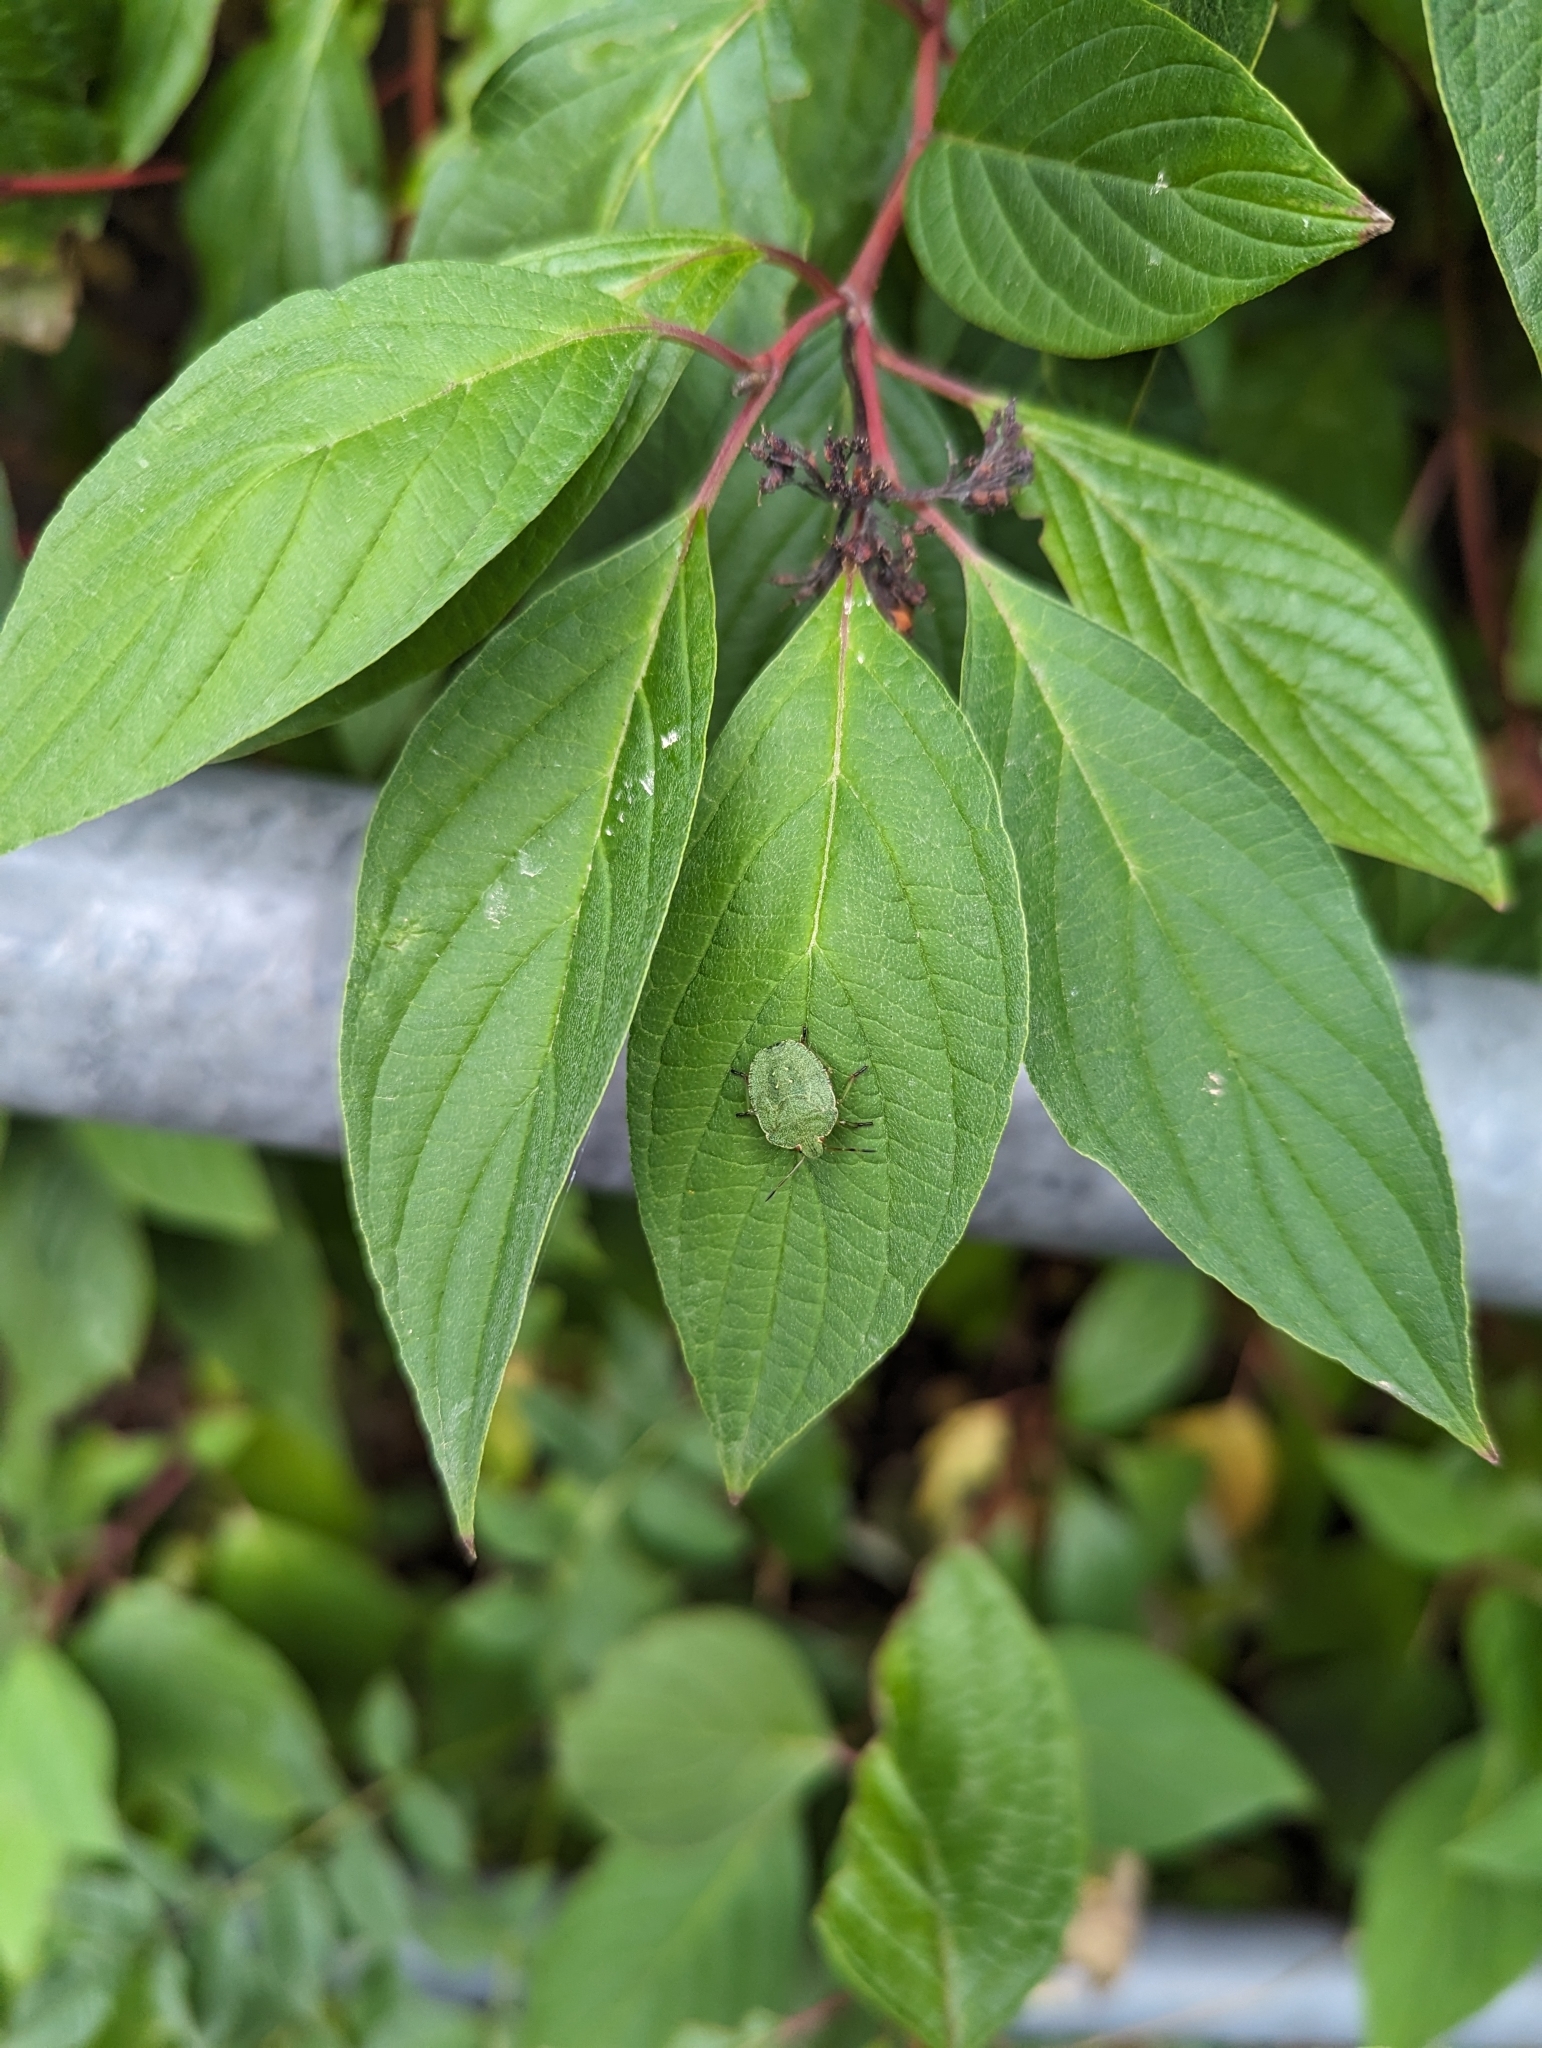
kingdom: Animalia
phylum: Arthropoda
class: Insecta
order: Hemiptera
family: Pentatomidae
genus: Palomena
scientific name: Palomena prasina
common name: Green shieldbug
